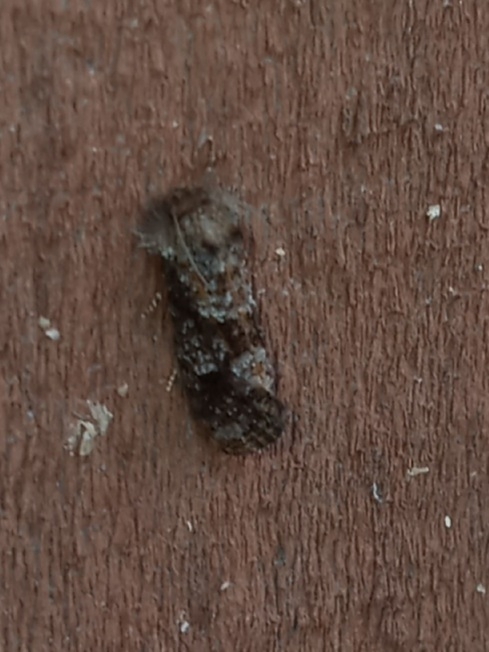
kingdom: Animalia
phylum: Arthropoda
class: Insecta
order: Lepidoptera
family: Tineidae
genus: Acrolophus
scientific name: Acrolophus panamae
